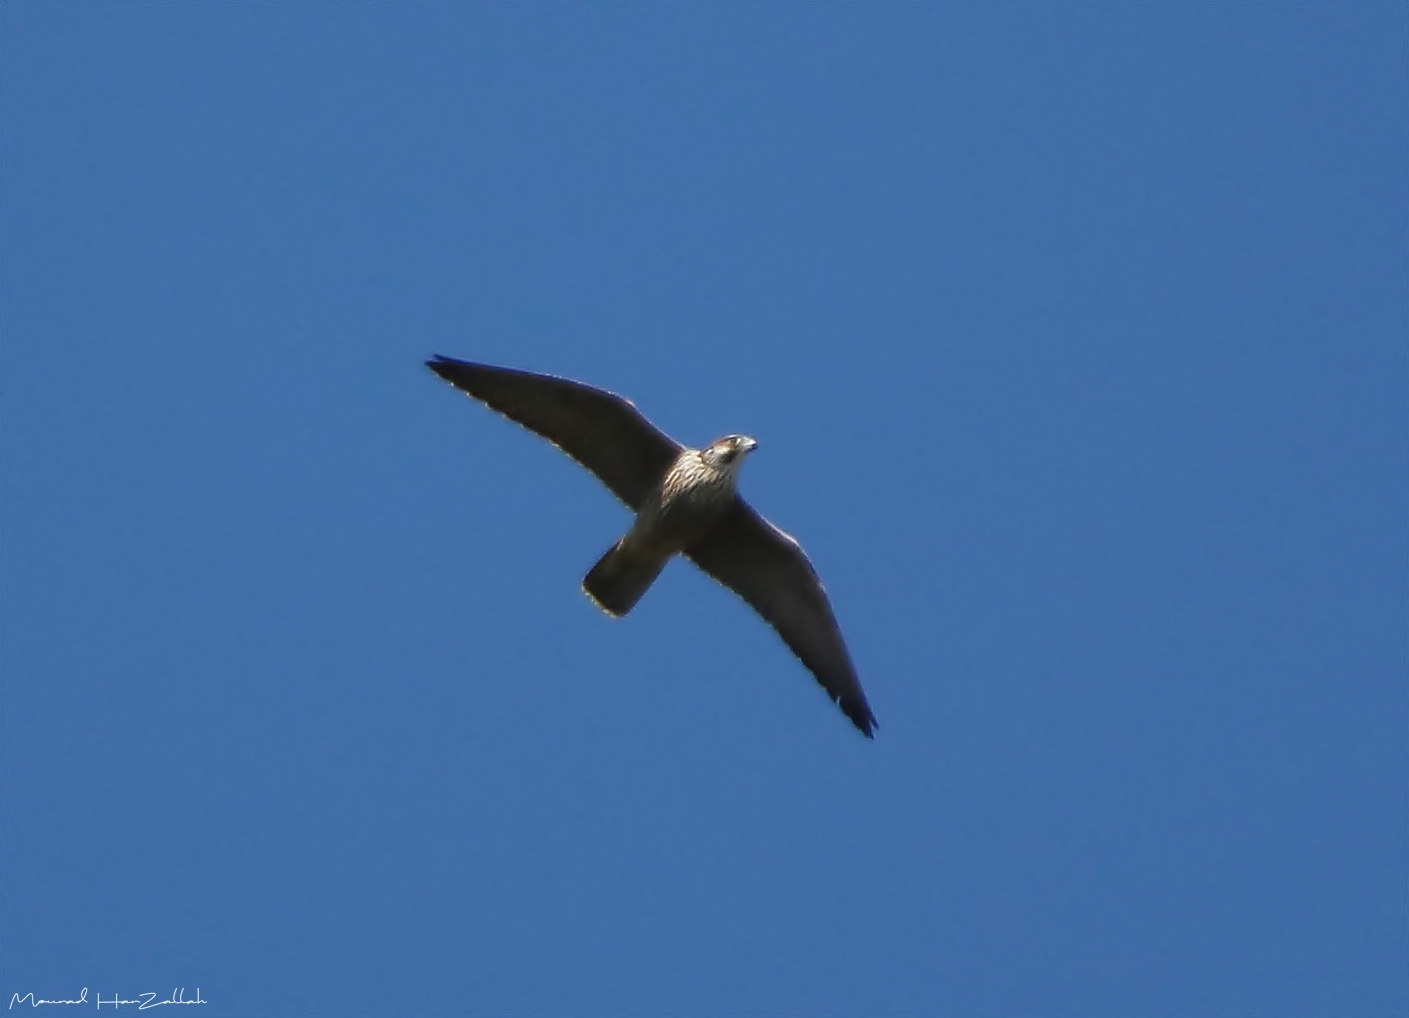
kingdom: Animalia
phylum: Chordata
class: Aves
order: Falconiformes
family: Falconidae
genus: Falco
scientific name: Falco biarmicus
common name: Lanner falcon
